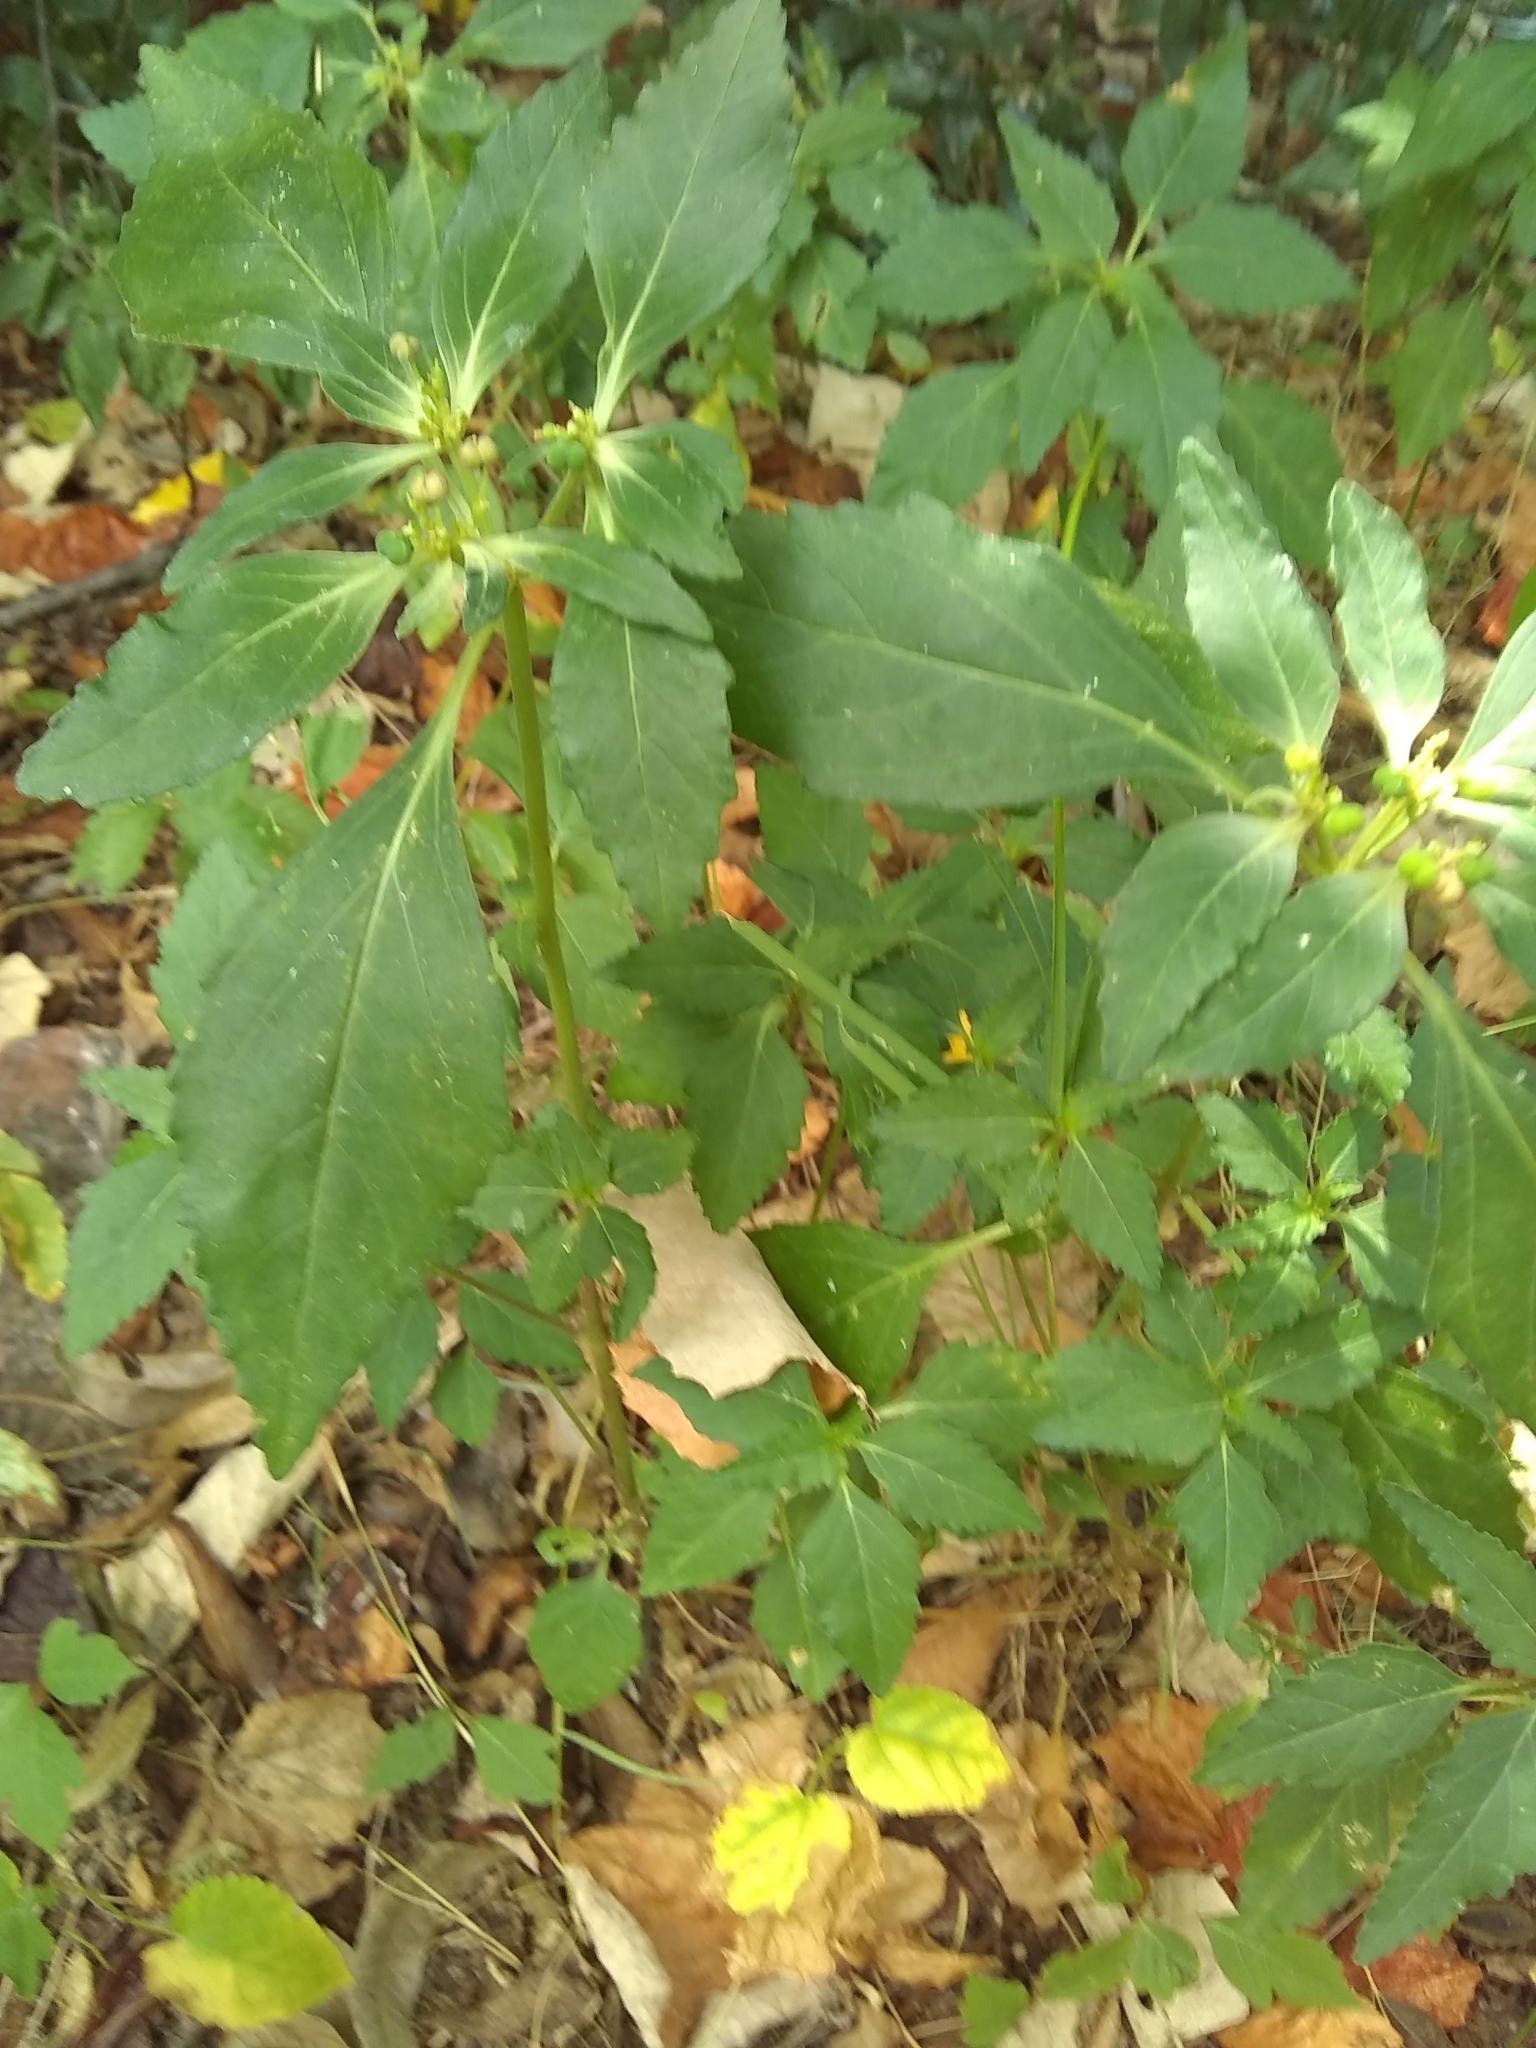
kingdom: Plantae
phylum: Tracheophyta
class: Magnoliopsida
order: Malpighiales
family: Euphorbiaceae
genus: Euphorbia
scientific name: Euphorbia dentata
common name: Dentate spurge
